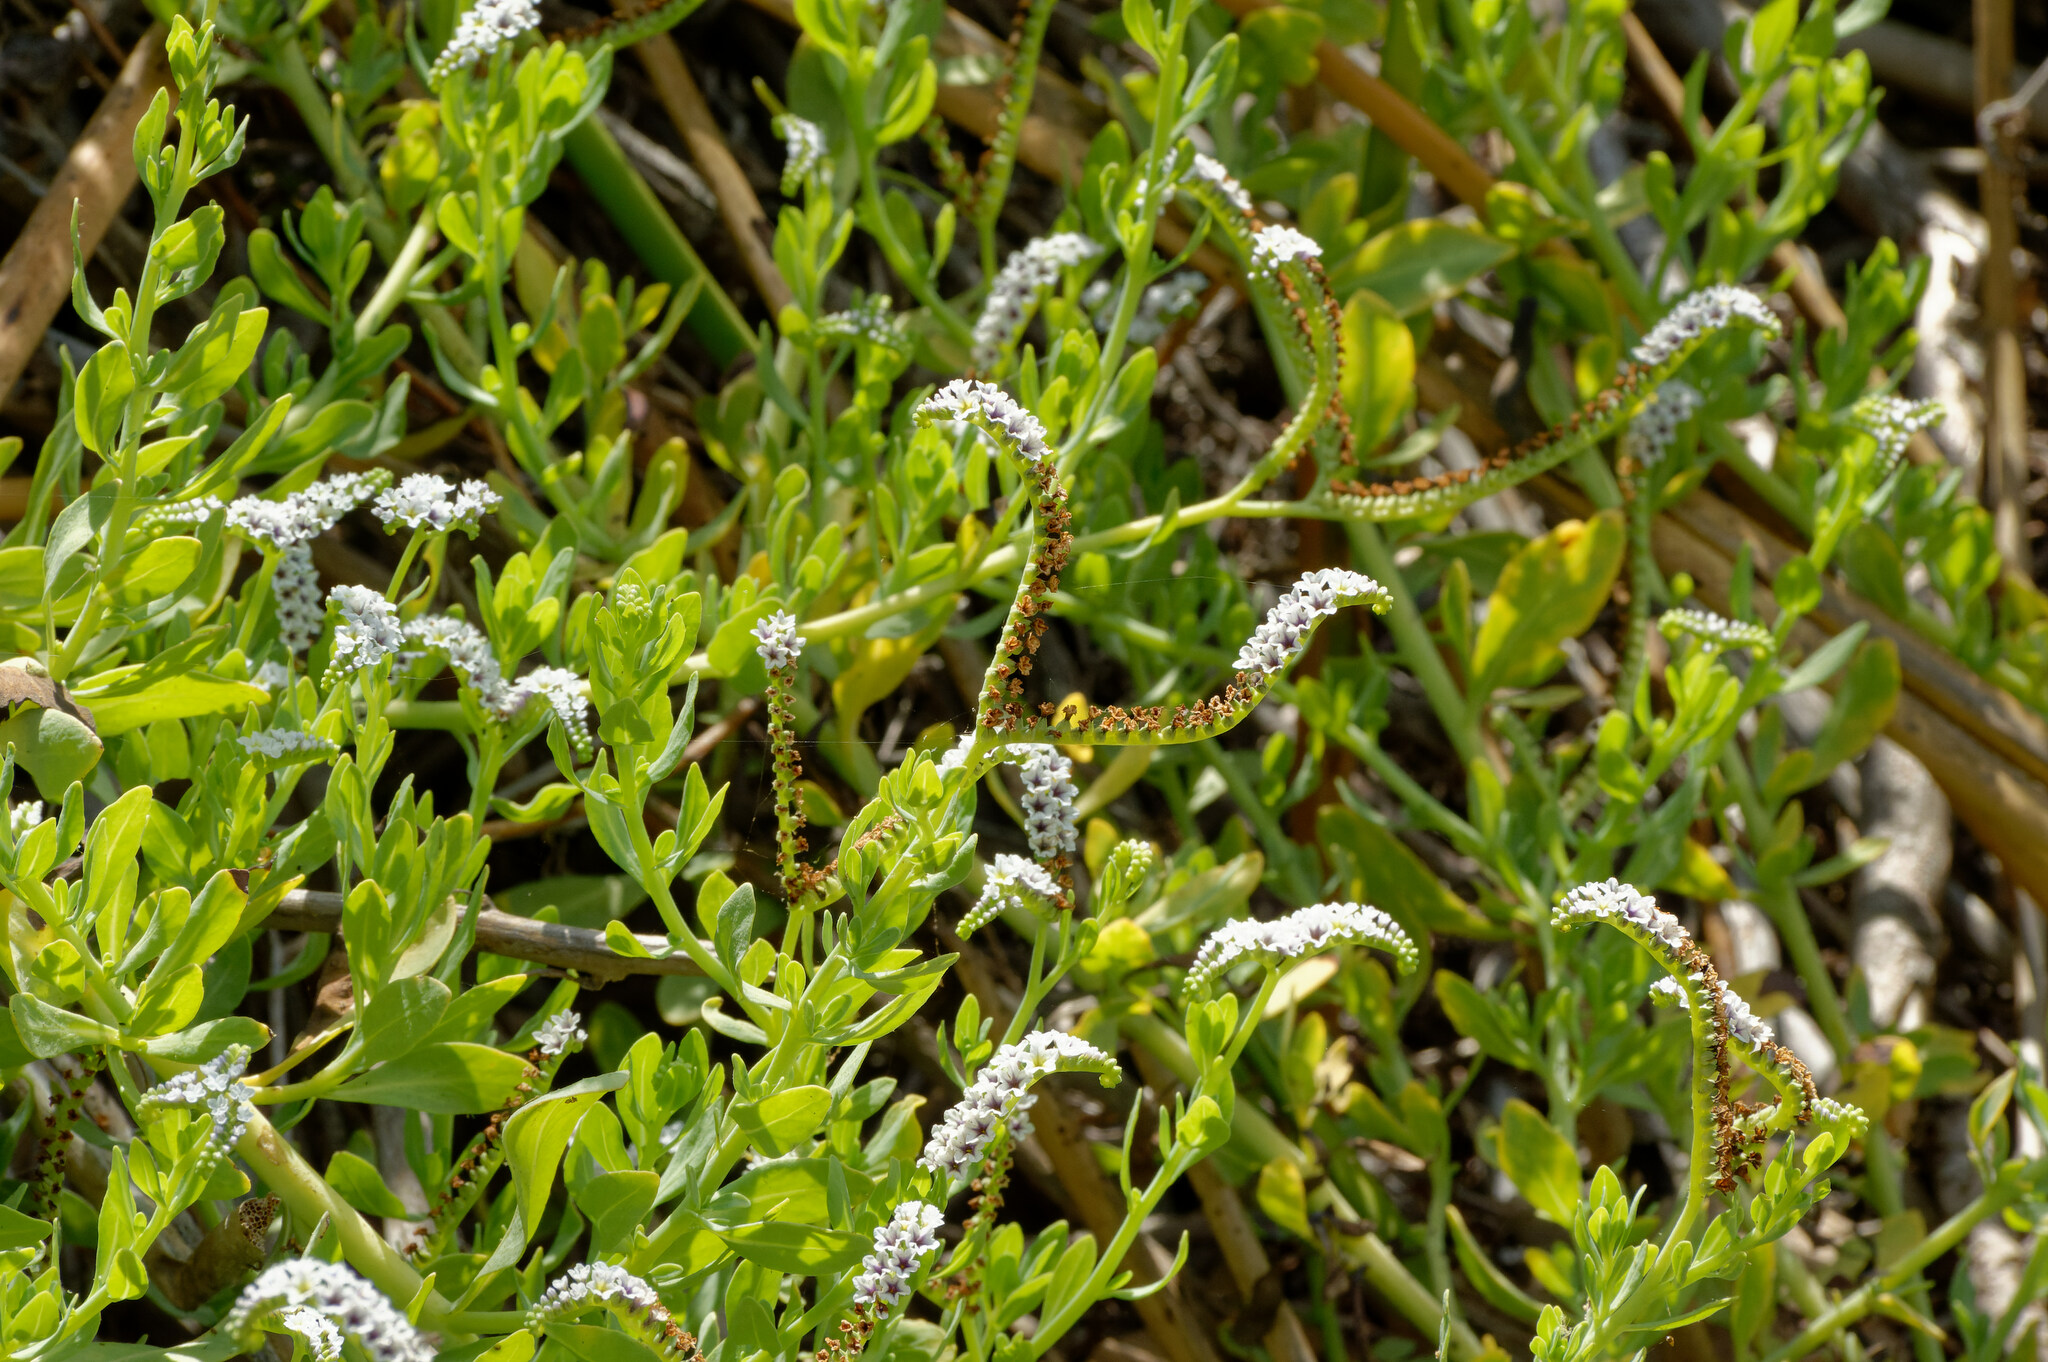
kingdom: Plantae
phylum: Tracheophyta
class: Magnoliopsida
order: Boraginales
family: Heliotropiaceae
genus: Heliotropium
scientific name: Heliotropium curassavicum
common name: Seaside heliotrope
